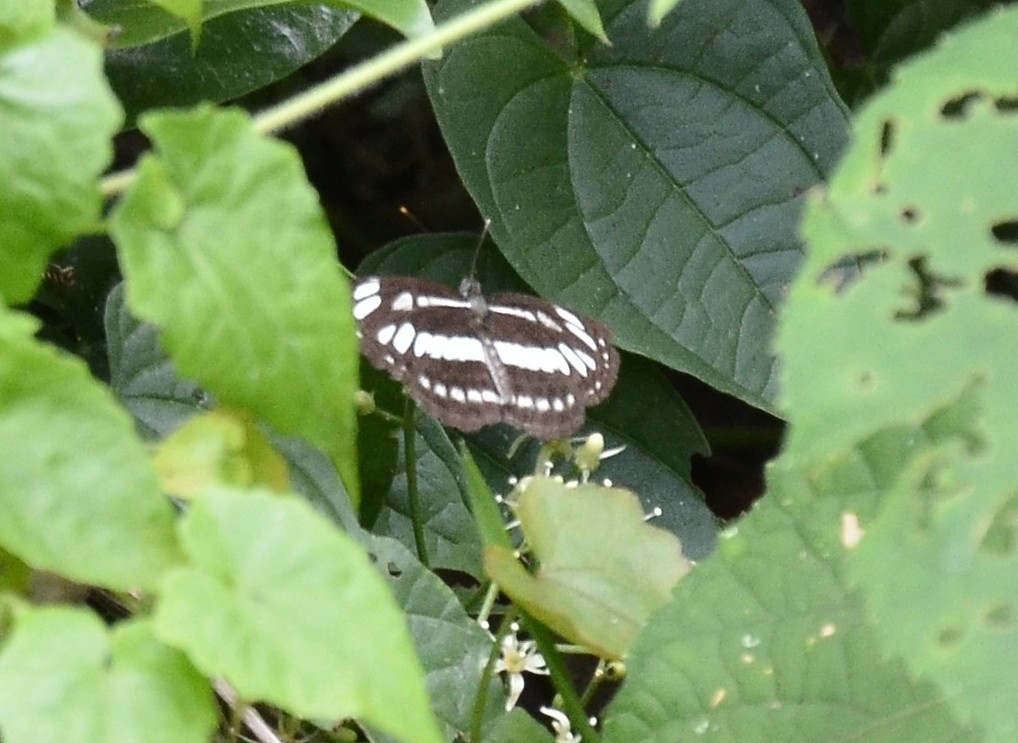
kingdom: Animalia
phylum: Arthropoda
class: Insecta
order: Lepidoptera
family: Nymphalidae
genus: Neptis
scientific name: Neptis hylas
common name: Common sailer
